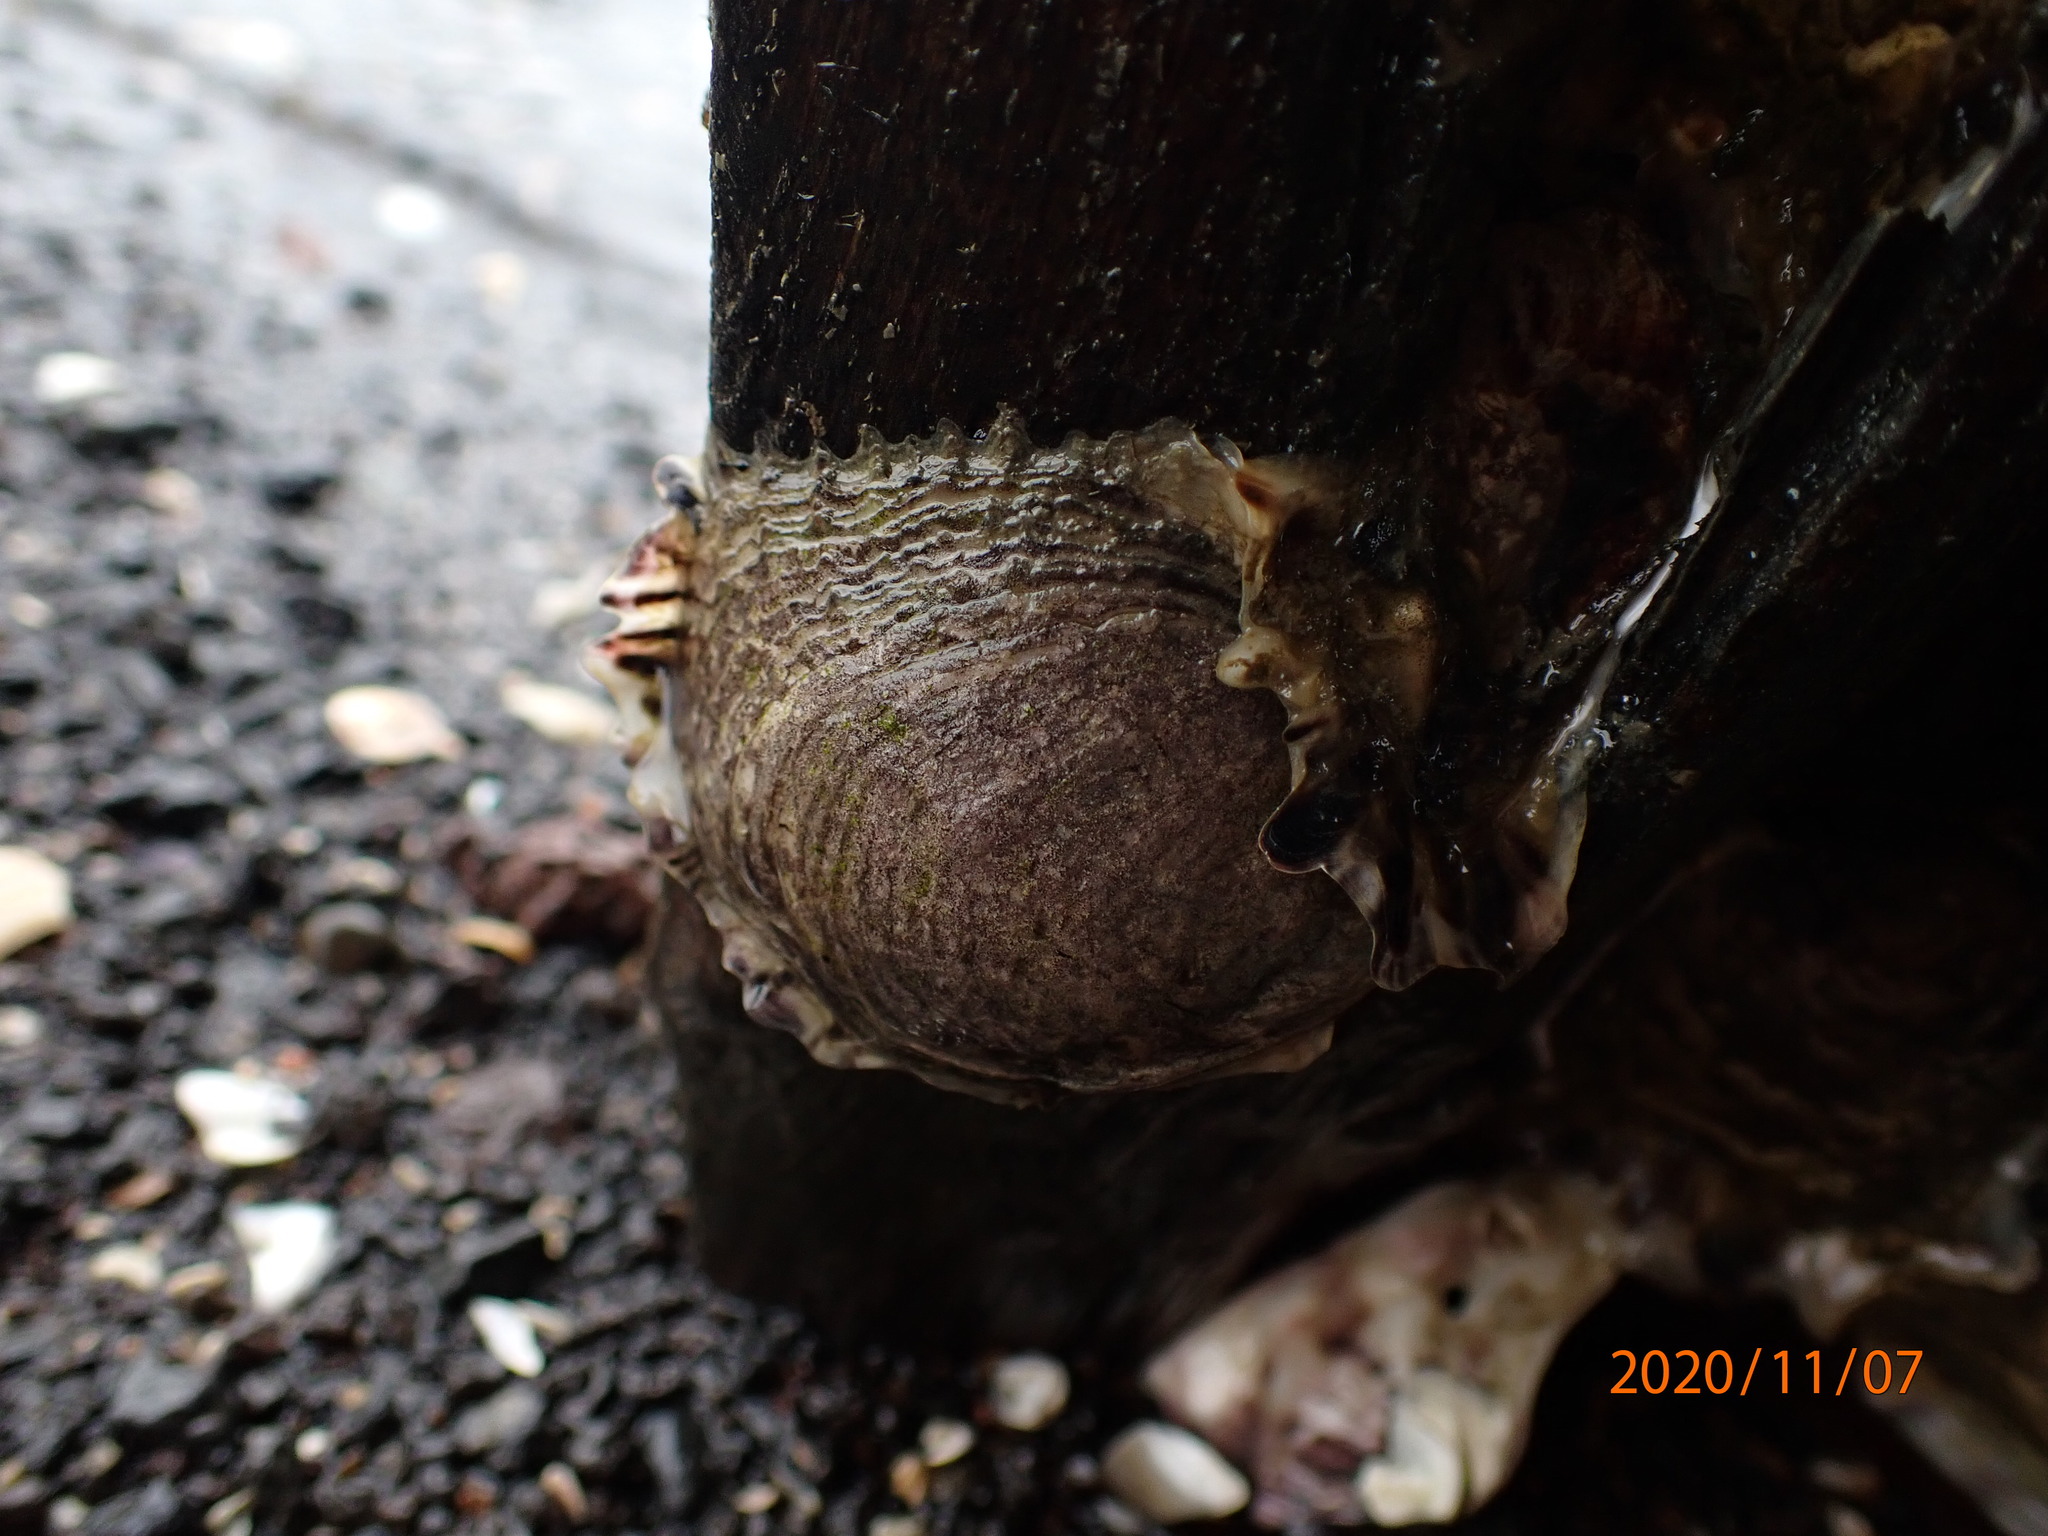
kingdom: Animalia
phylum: Mollusca
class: Bivalvia
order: Ostreida
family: Ostreidae
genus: Magallana
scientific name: Magallana gigas
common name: Pacific oyster
